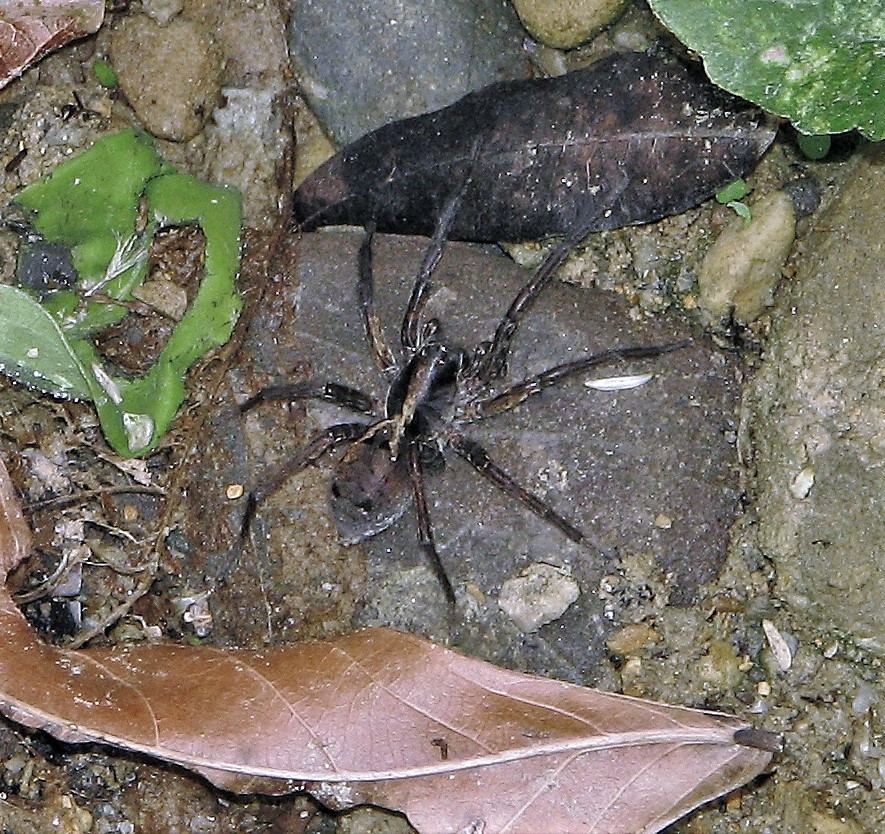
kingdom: Animalia
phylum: Arthropoda
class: Arachnida
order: Araneae
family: Lycosidae
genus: Hogna
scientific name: Hogna gumia
